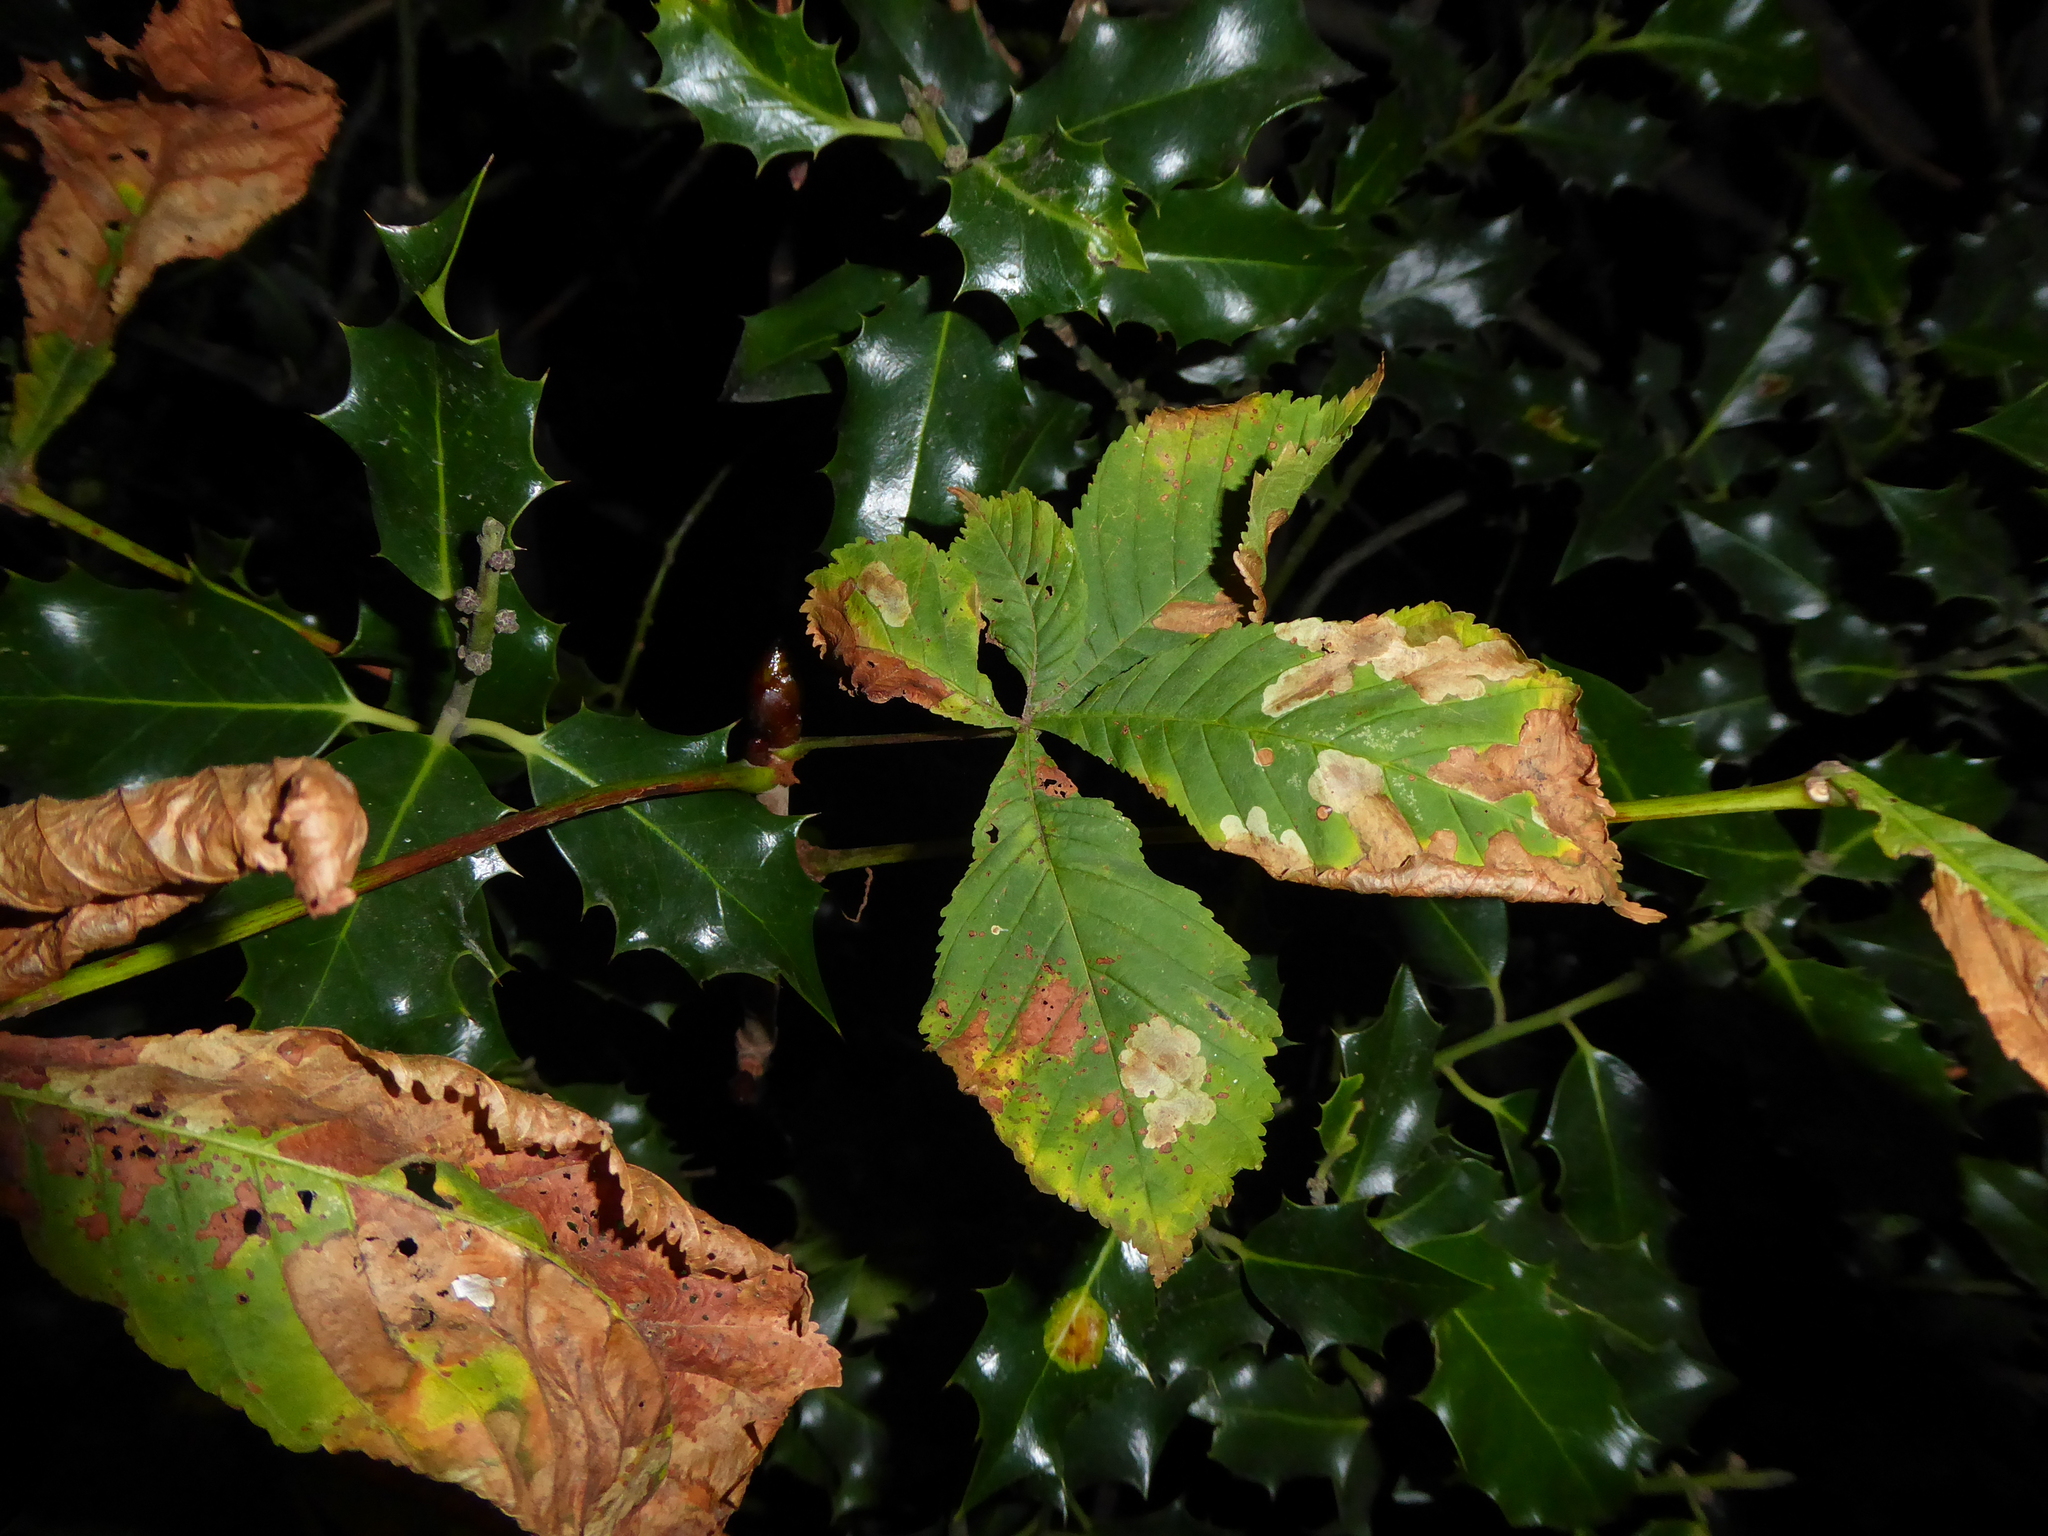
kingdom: Plantae
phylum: Tracheophyta
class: Magnoliopsida
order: Sapindales
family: Sapindaceae
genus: Aesculus
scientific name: Aesculus hippocastanum
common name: Horse-chestnut
